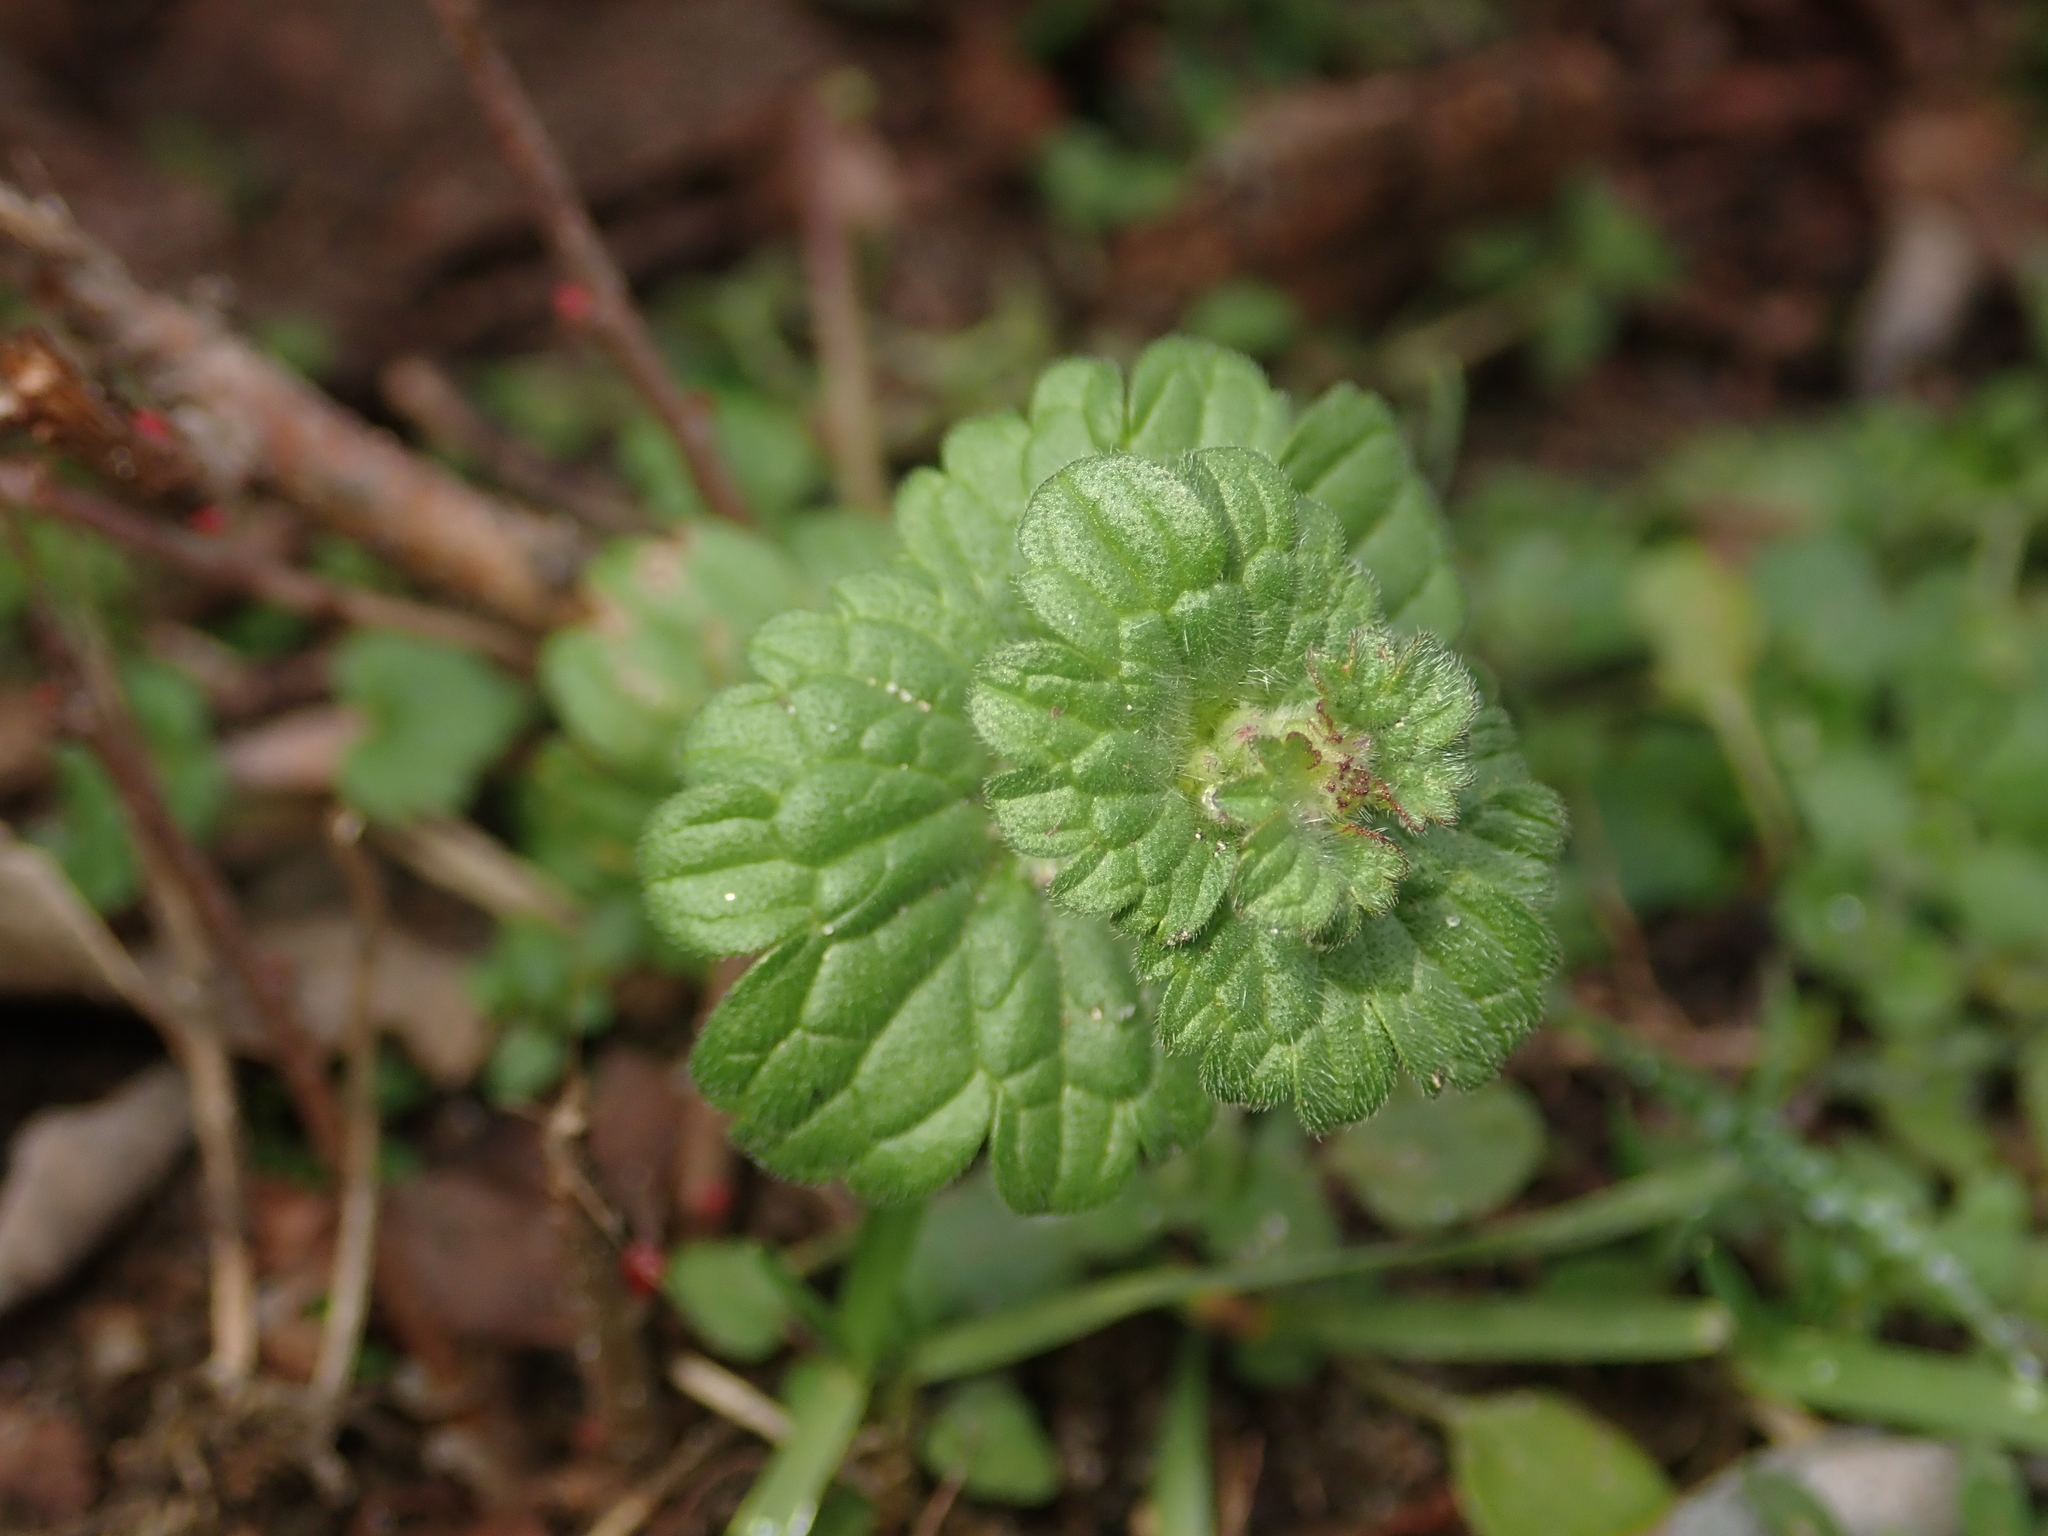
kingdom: Plantae
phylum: Tracheophyta
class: Magnoliopsida
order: Lamiales
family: Lamiaceae
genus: Lamium
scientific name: Lamium amplexicaule
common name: Henbit dead-nettle
